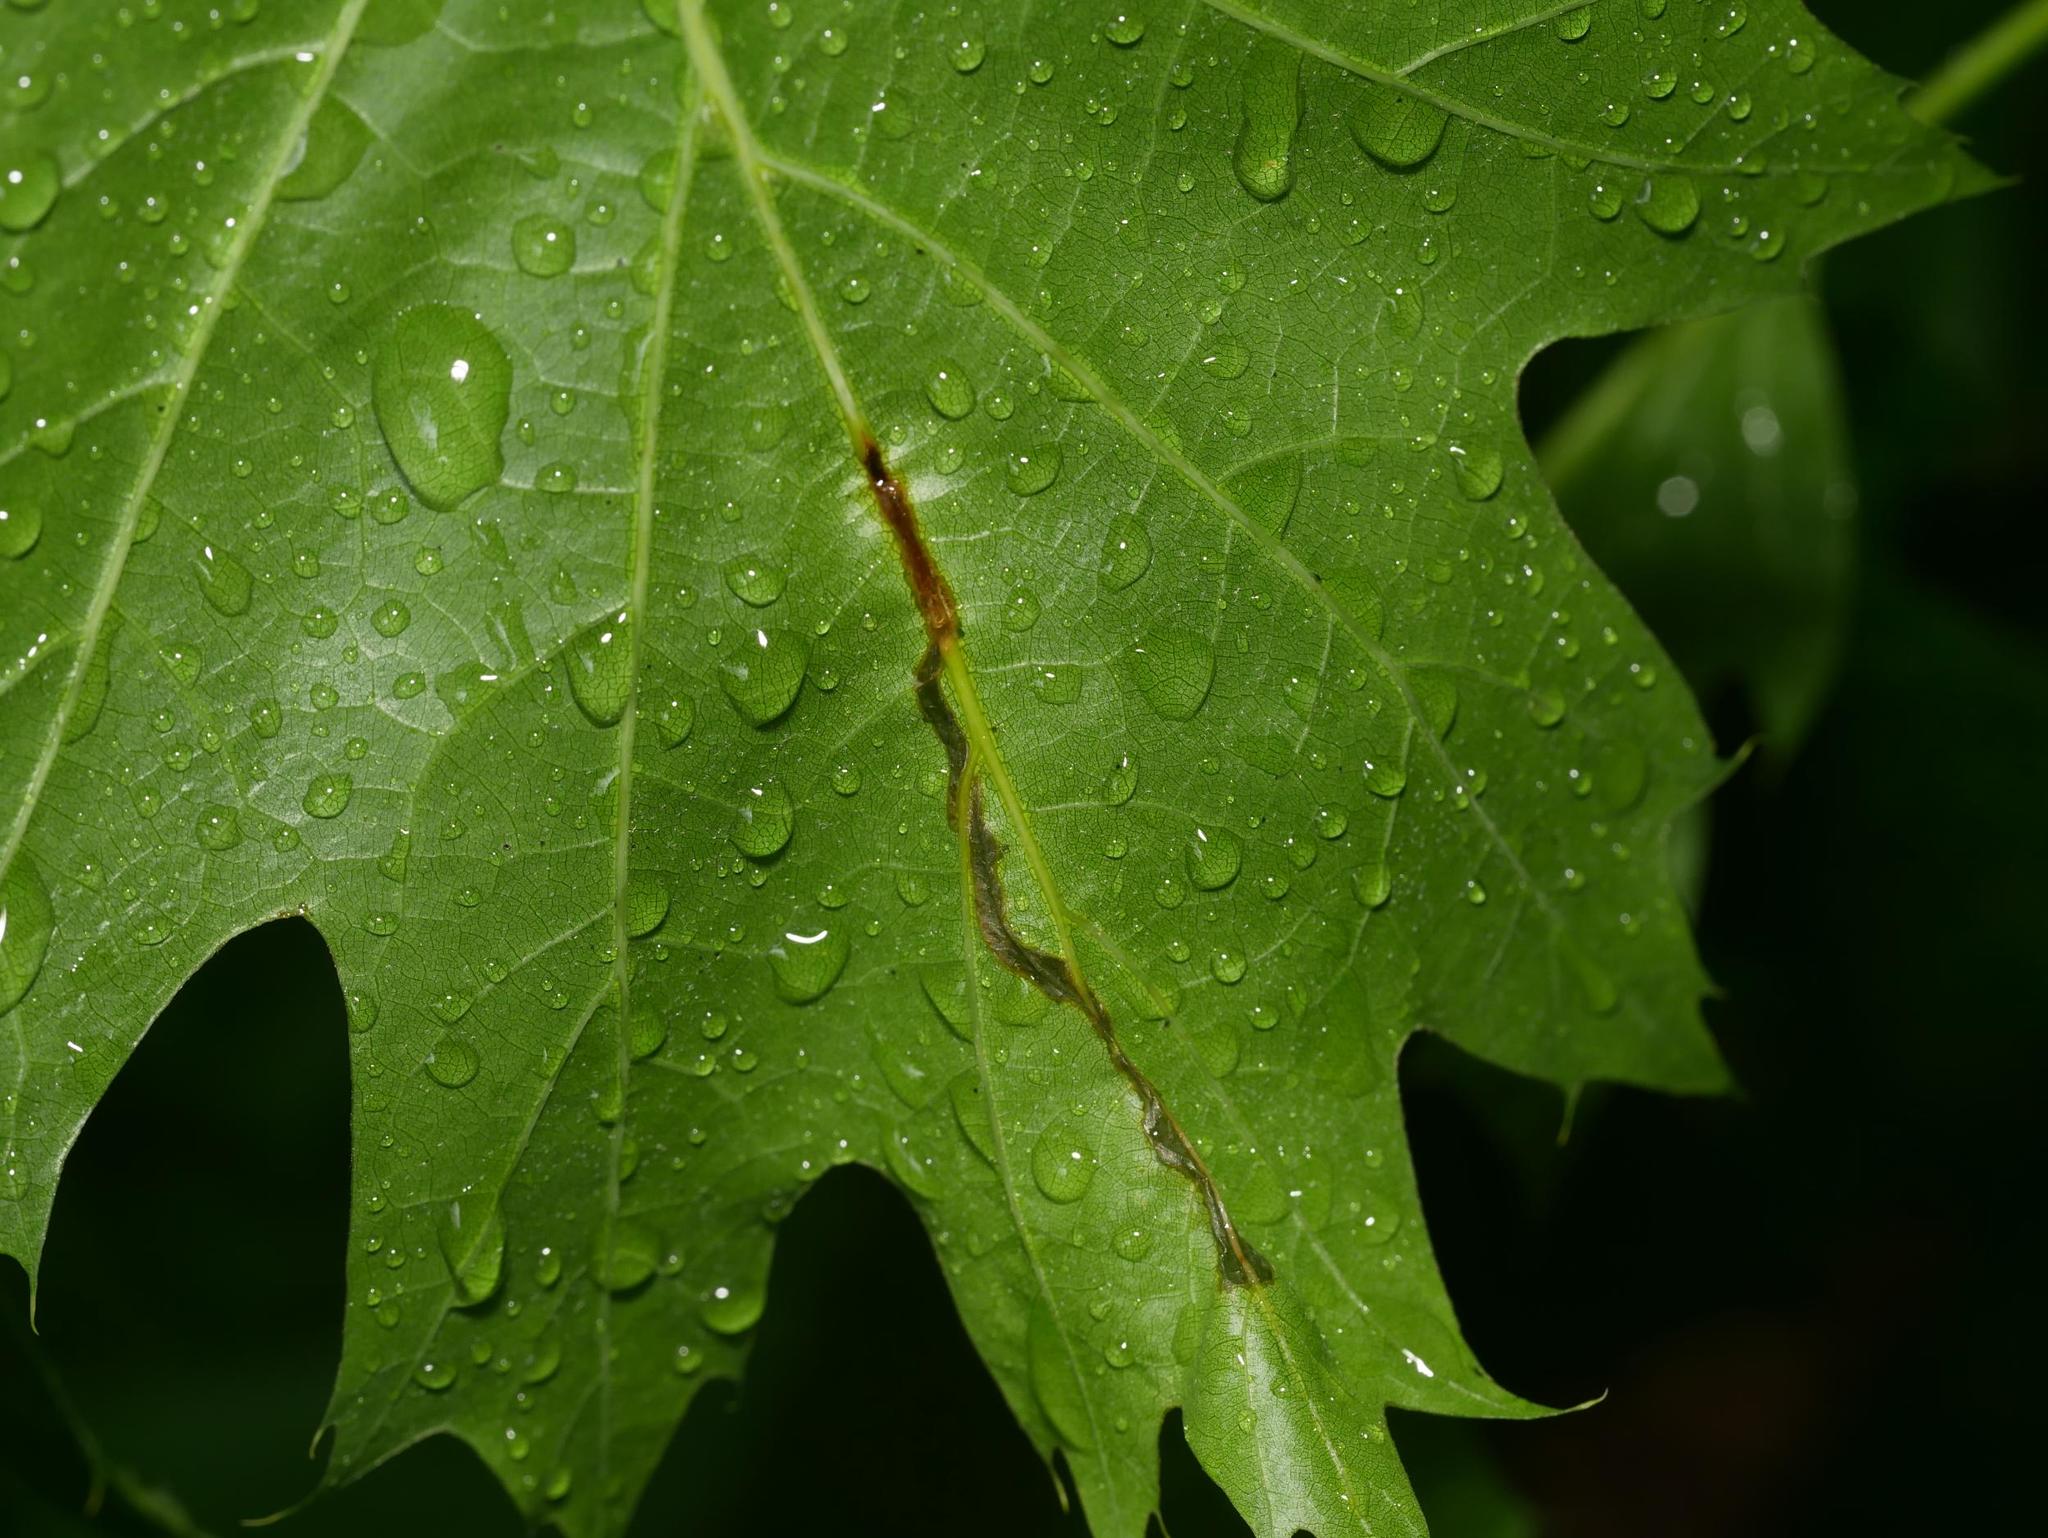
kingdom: Animalia
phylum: Arthropoda
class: Insecta
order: Coleoptera
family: Curculionidae
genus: Orchestes
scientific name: Orchestes quercus
